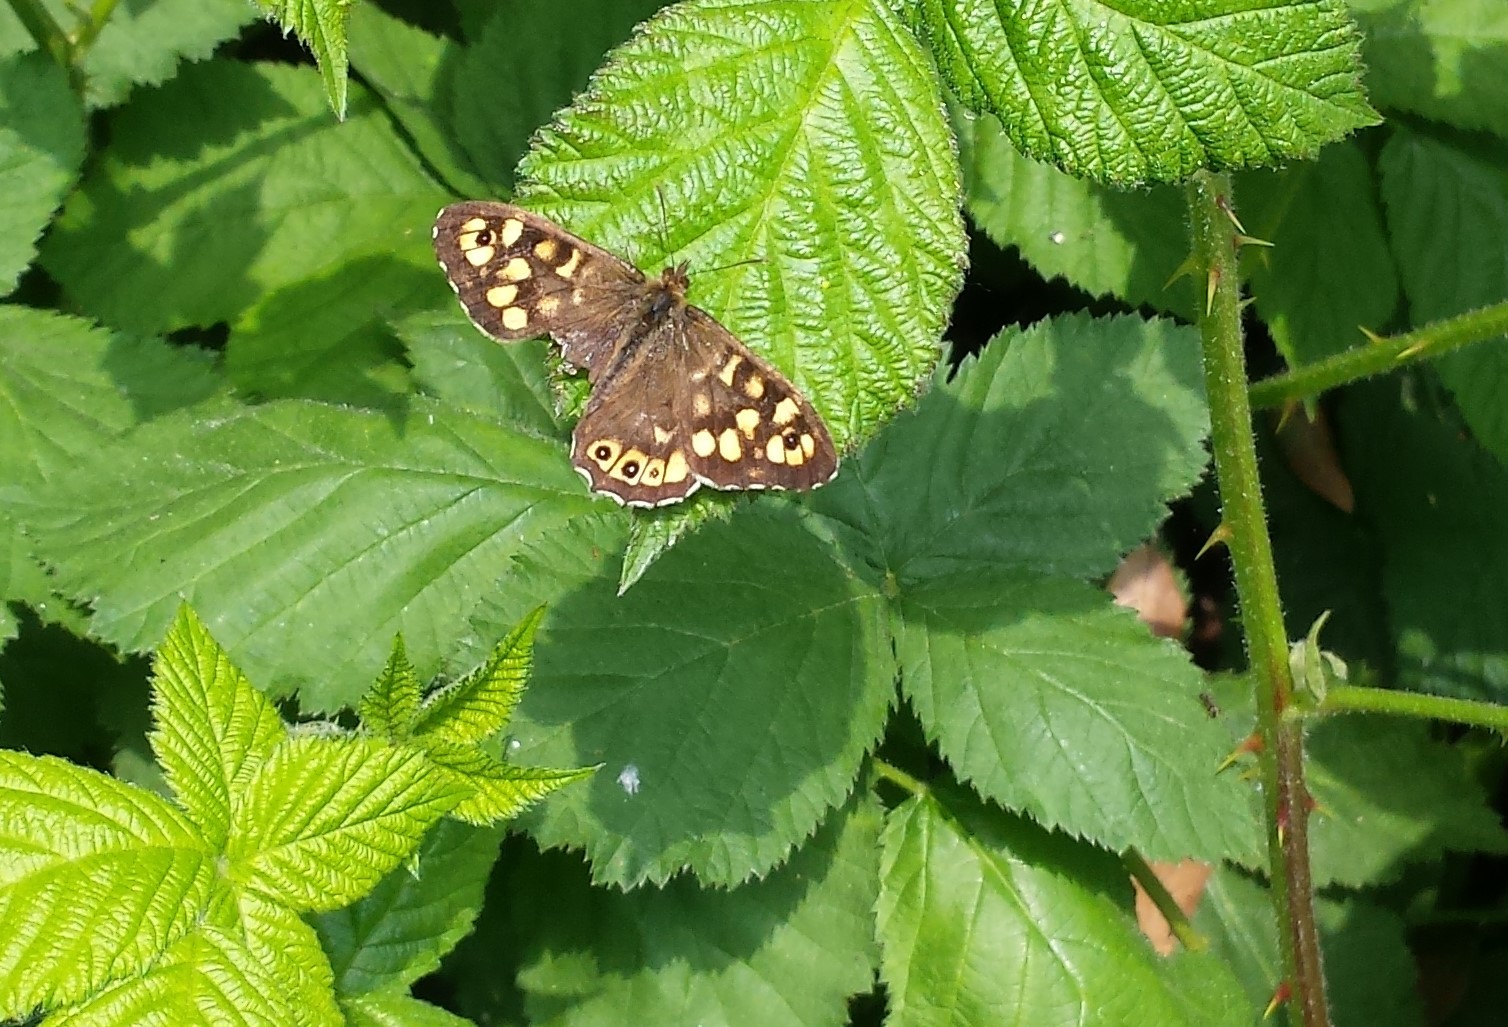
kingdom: Animalia
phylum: Arthropoda
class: Insecta
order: Lepidoptera
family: Nymphalidae
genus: Pararge
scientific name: Pararge aegeria
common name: Speckled wood
